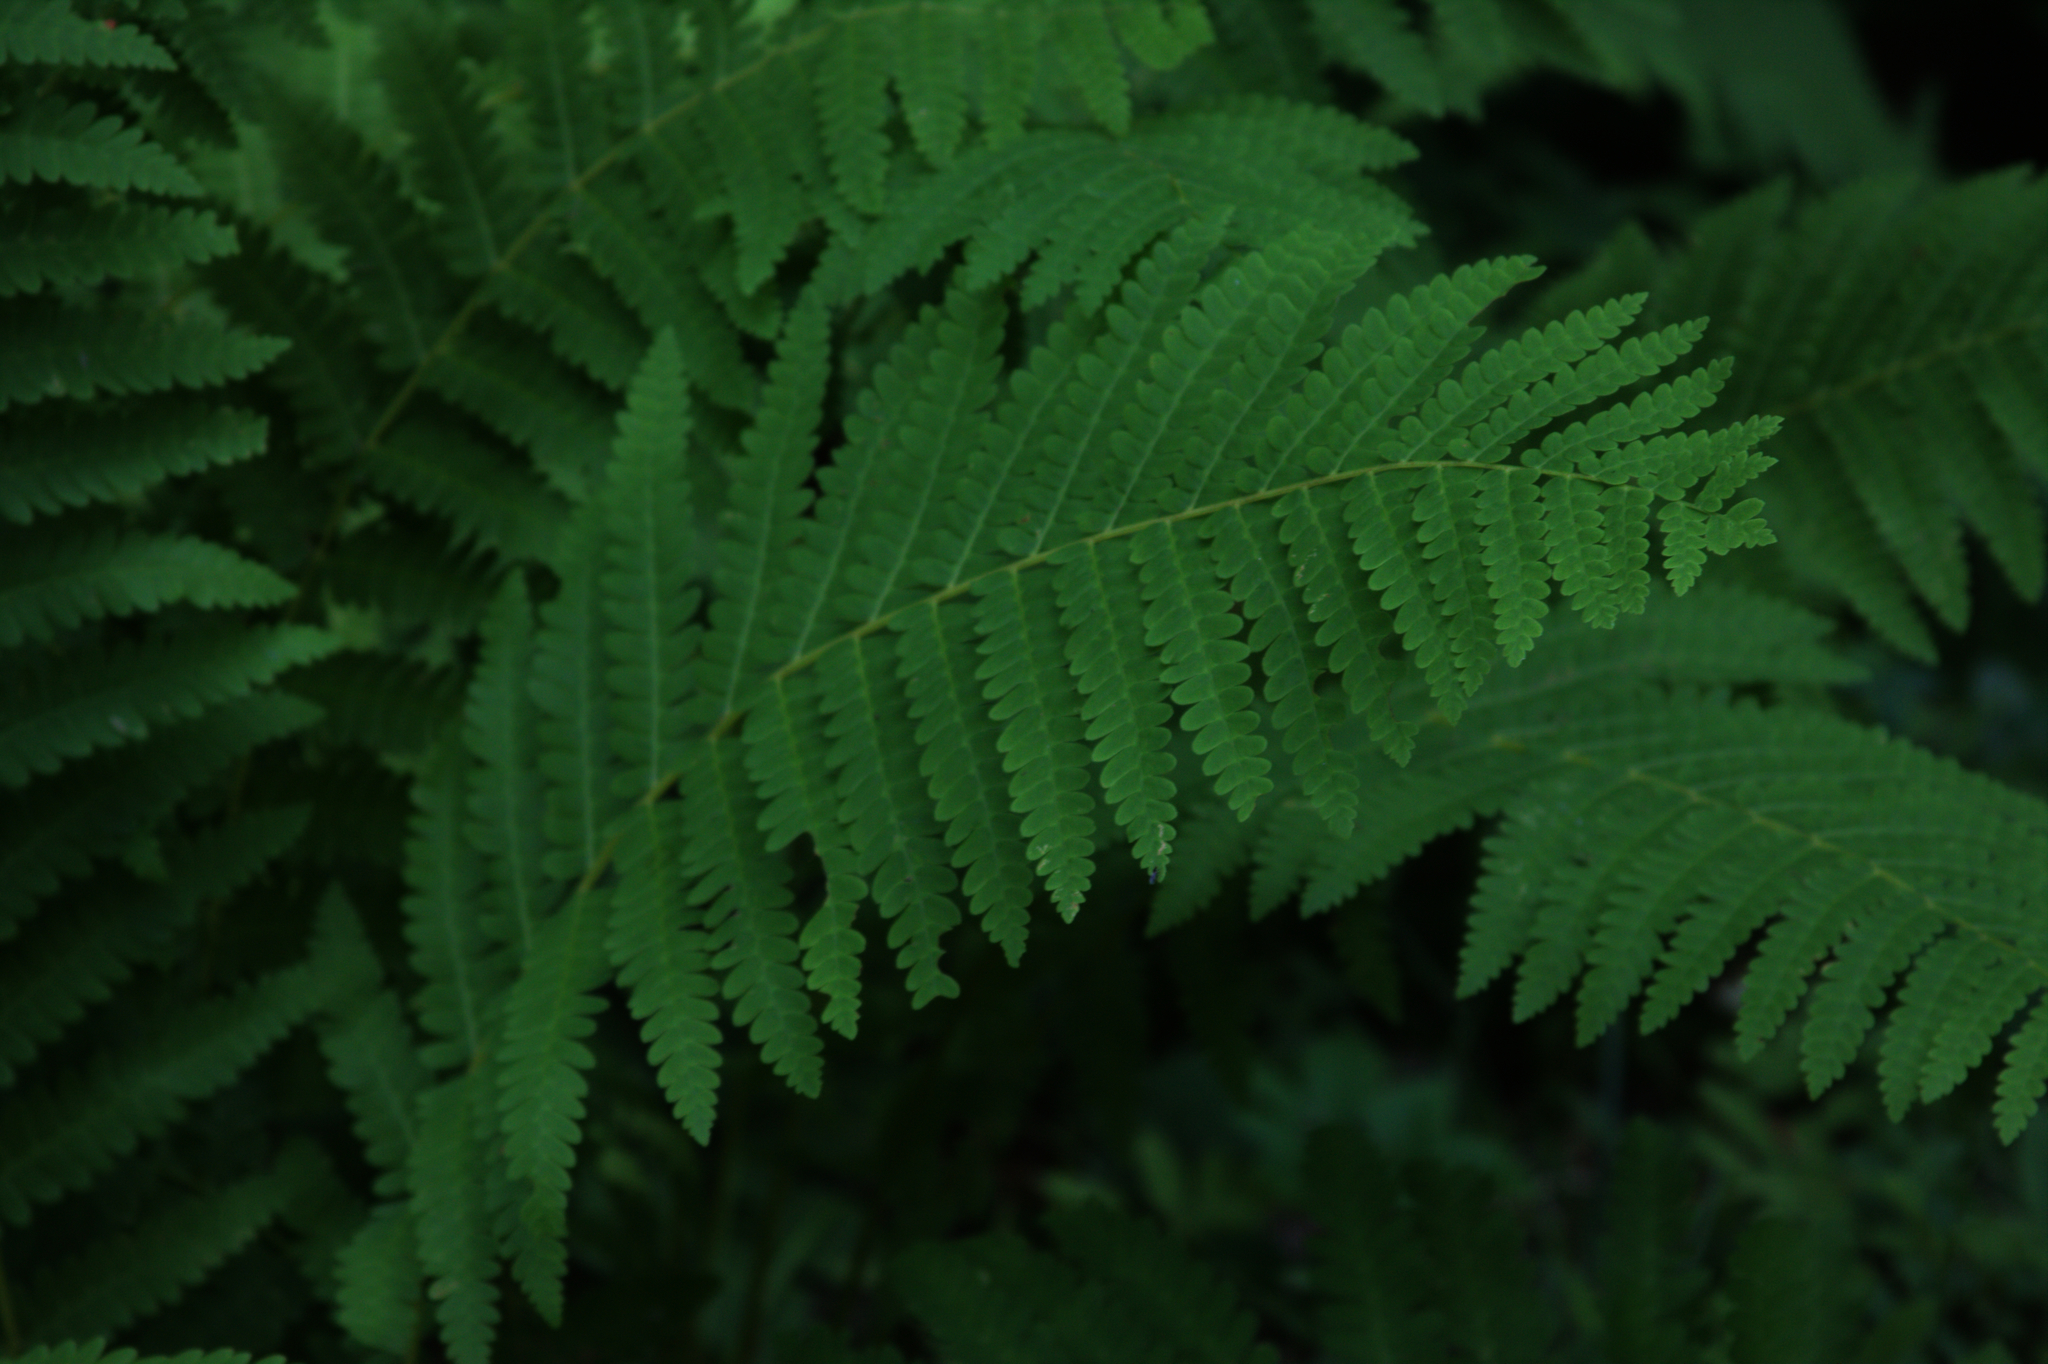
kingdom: Plantae
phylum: Tracheophyta
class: Polypodiopsida
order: Osmundales
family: Osmundaceae
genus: Claytosmunda
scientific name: Claytosmunda claytoniana
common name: Clayton's fern
